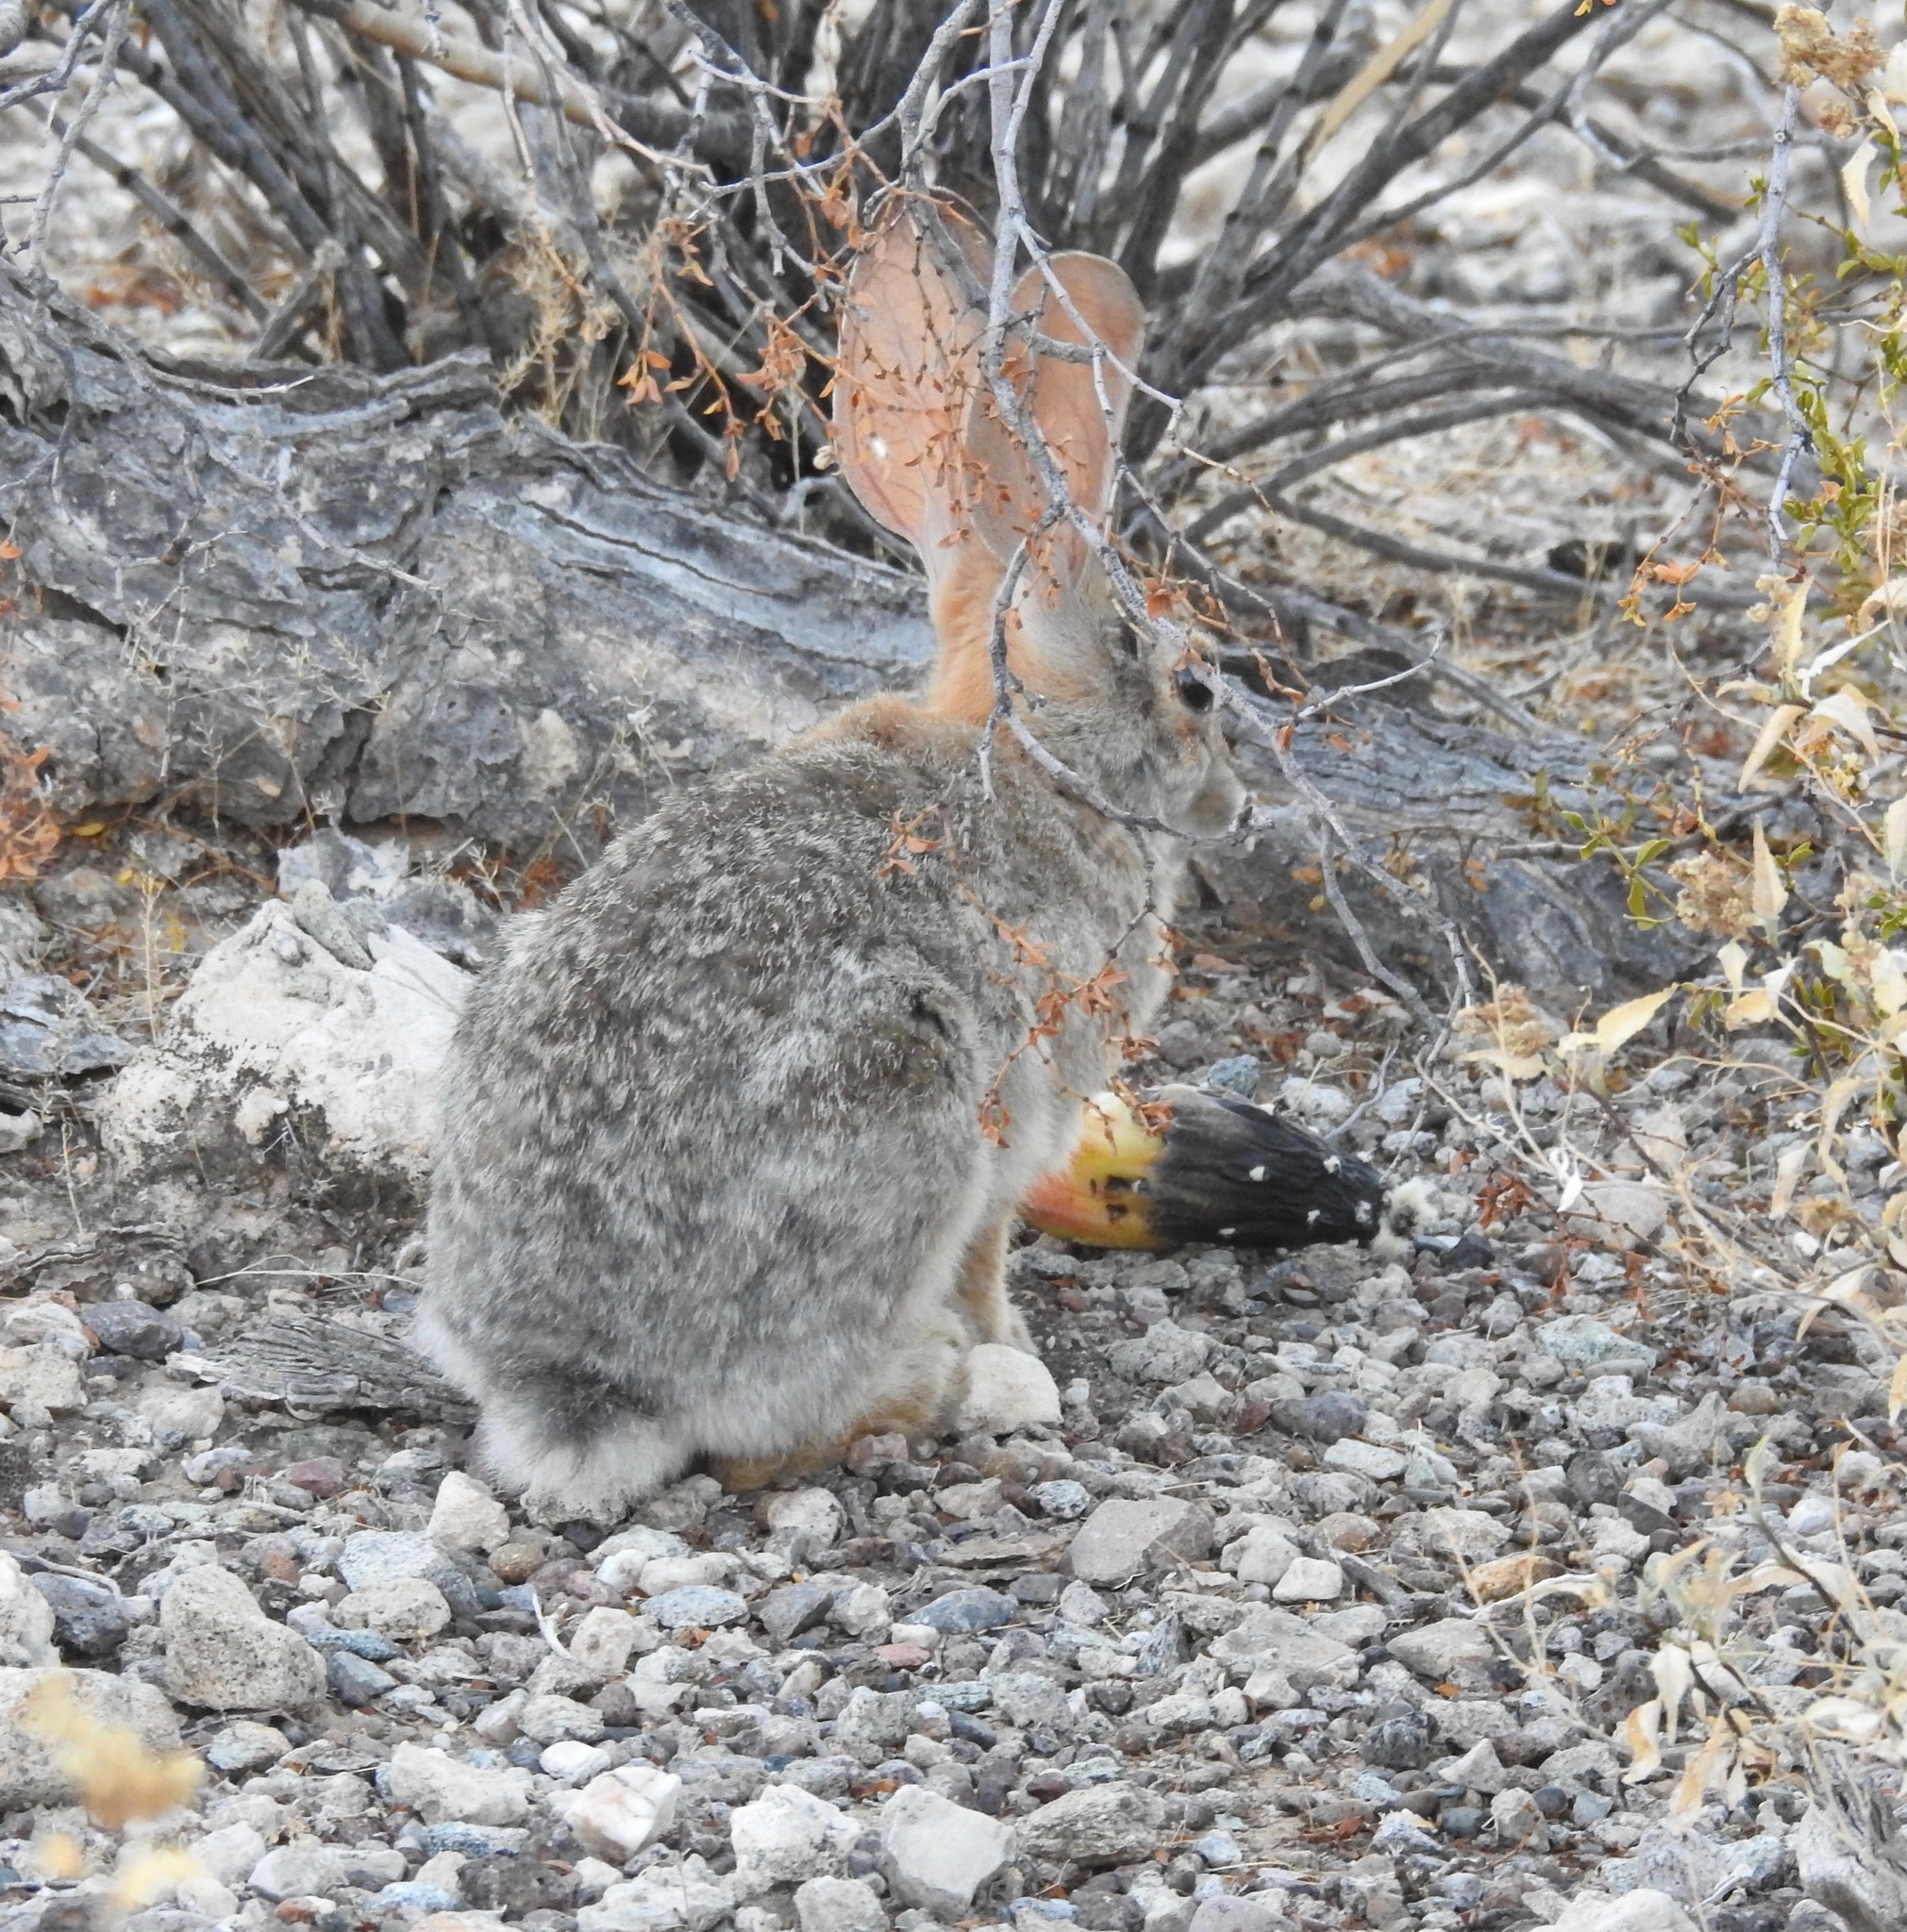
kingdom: Animalia
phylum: Chordata
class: Mammalia
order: Lagomorpha
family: Leporidae
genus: Sylvilagus
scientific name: Sylvilagus audubonii
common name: Desert cottontail
